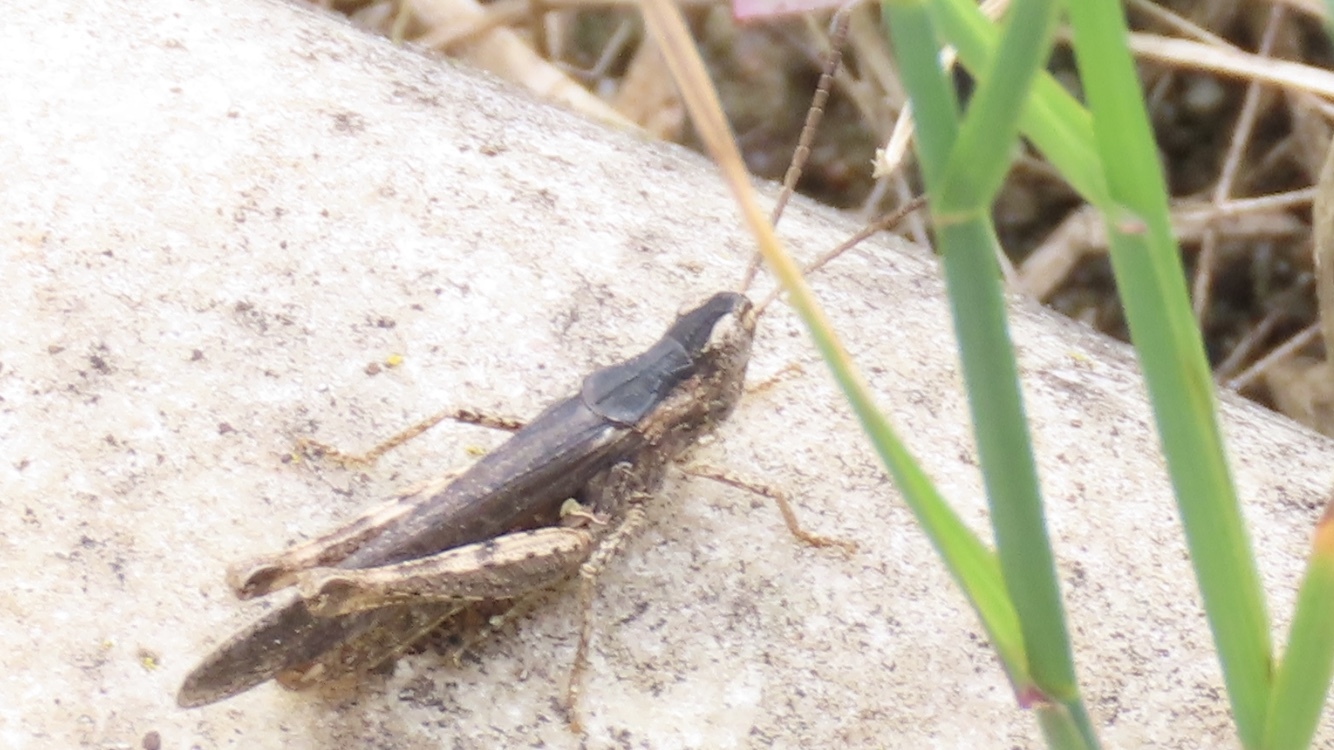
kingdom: Animalia
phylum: Arthropoda
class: Insecta
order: Orthoptera
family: Acrididae
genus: Chorthippus
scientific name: Chorthippus brunneus
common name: Field grasshopper
